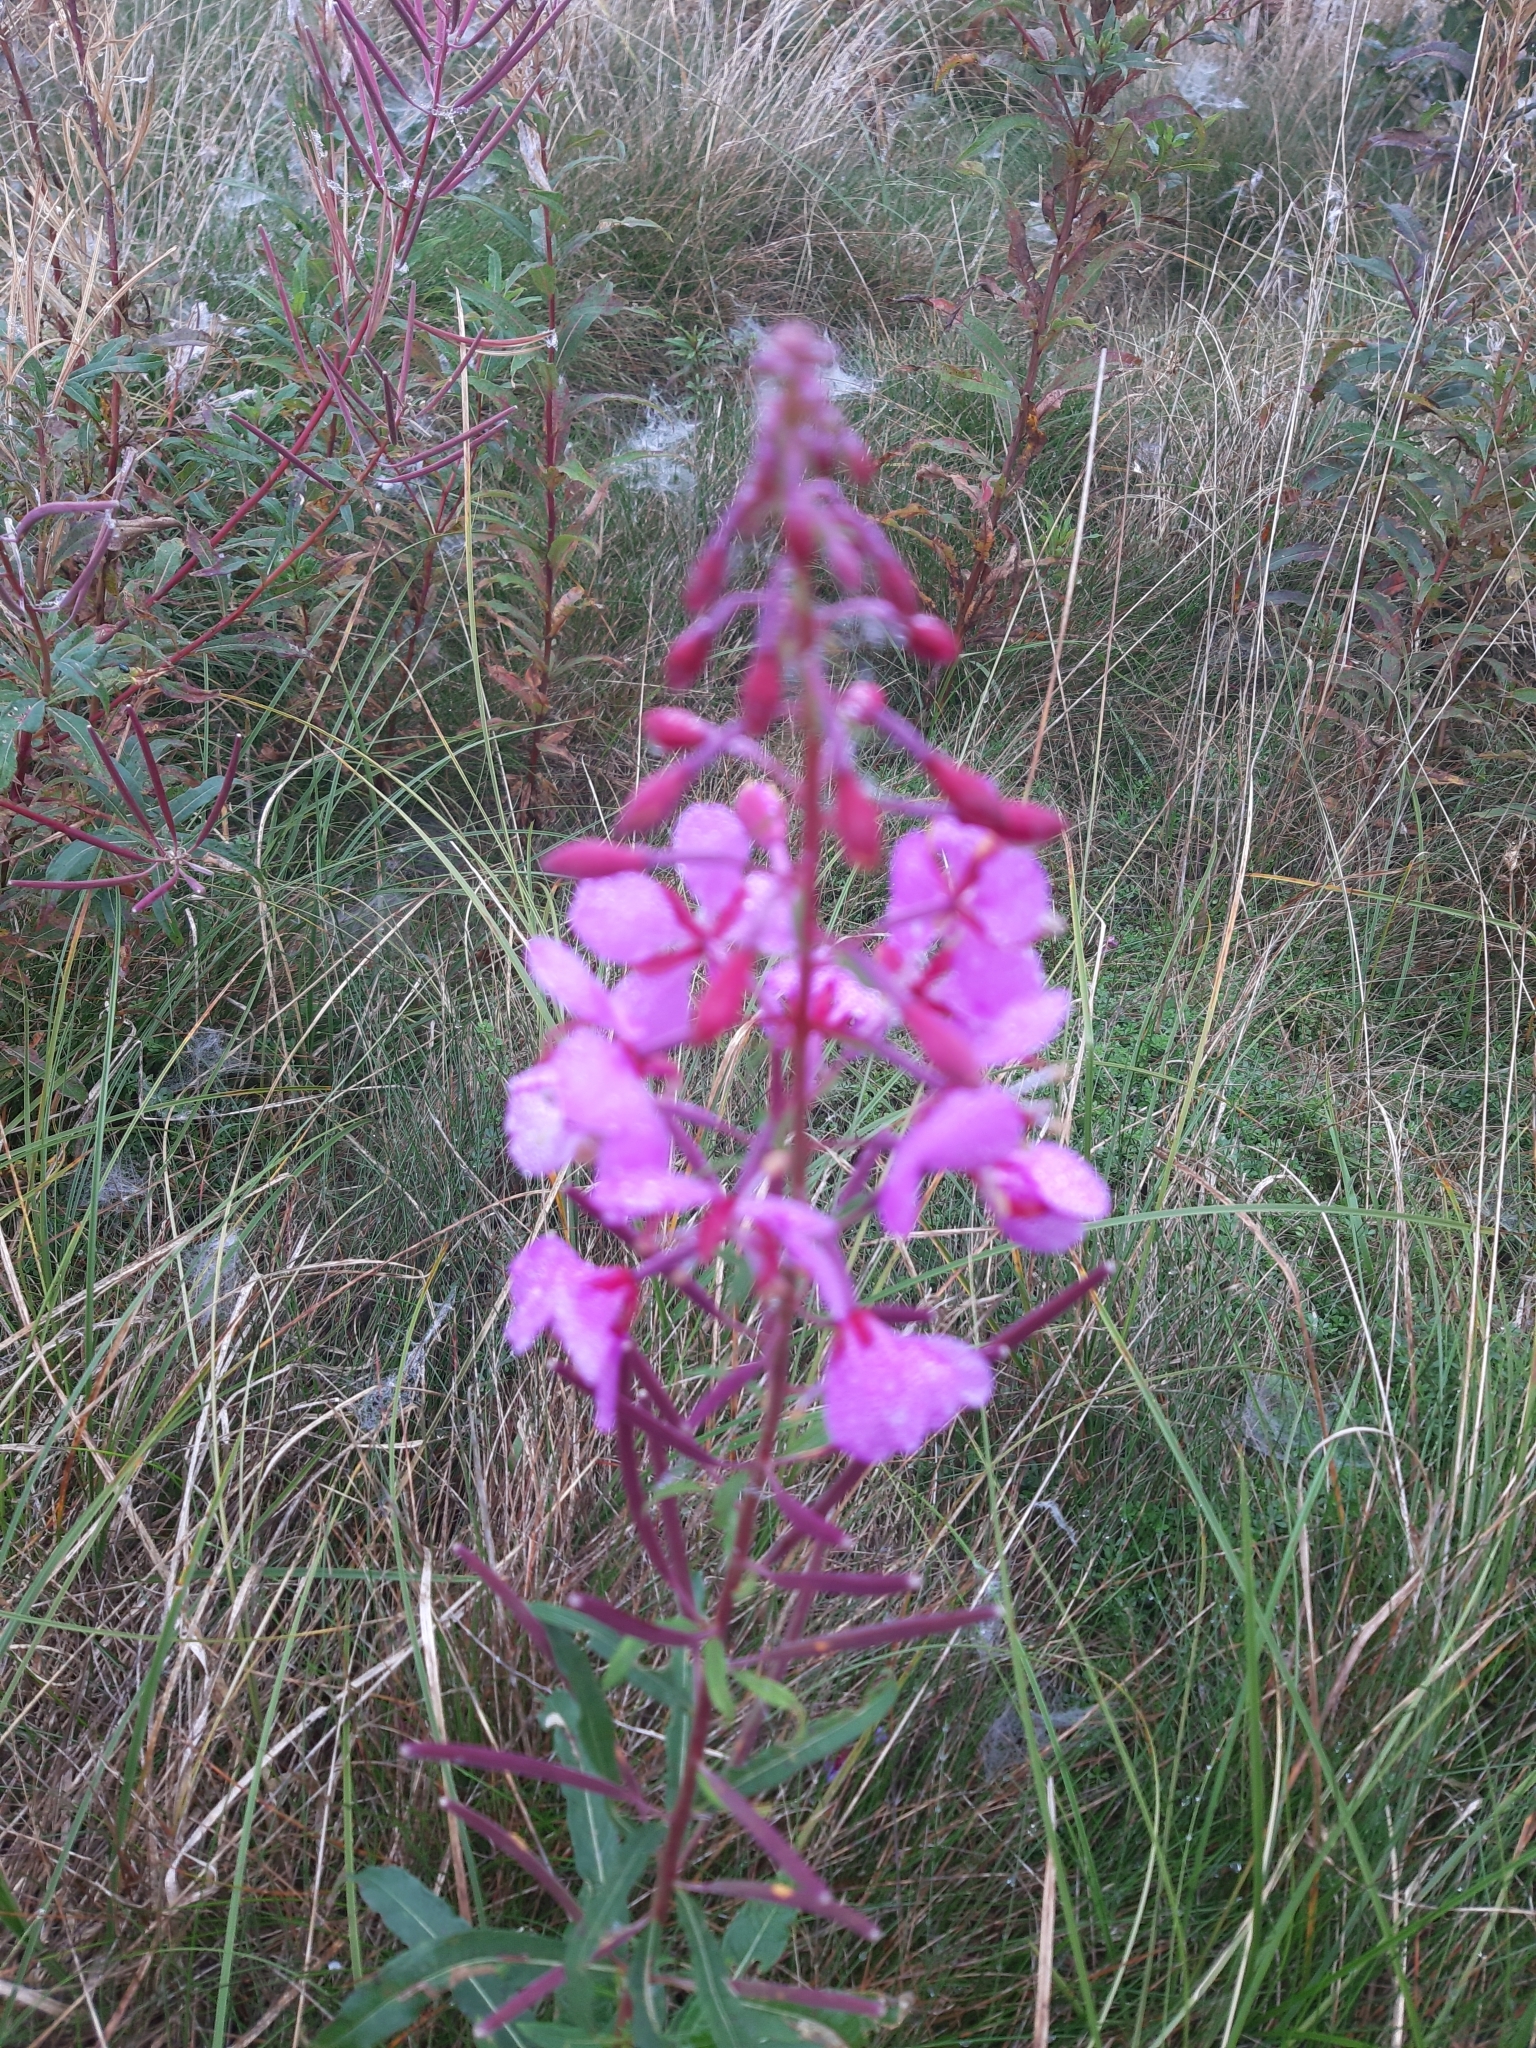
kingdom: Plantae
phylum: Tracheophyta
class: Magnoliopsida
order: Myrtales
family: Onagraceae
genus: Chamaenerion
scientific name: Chamaenerion angustifolium
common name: Fireweed
